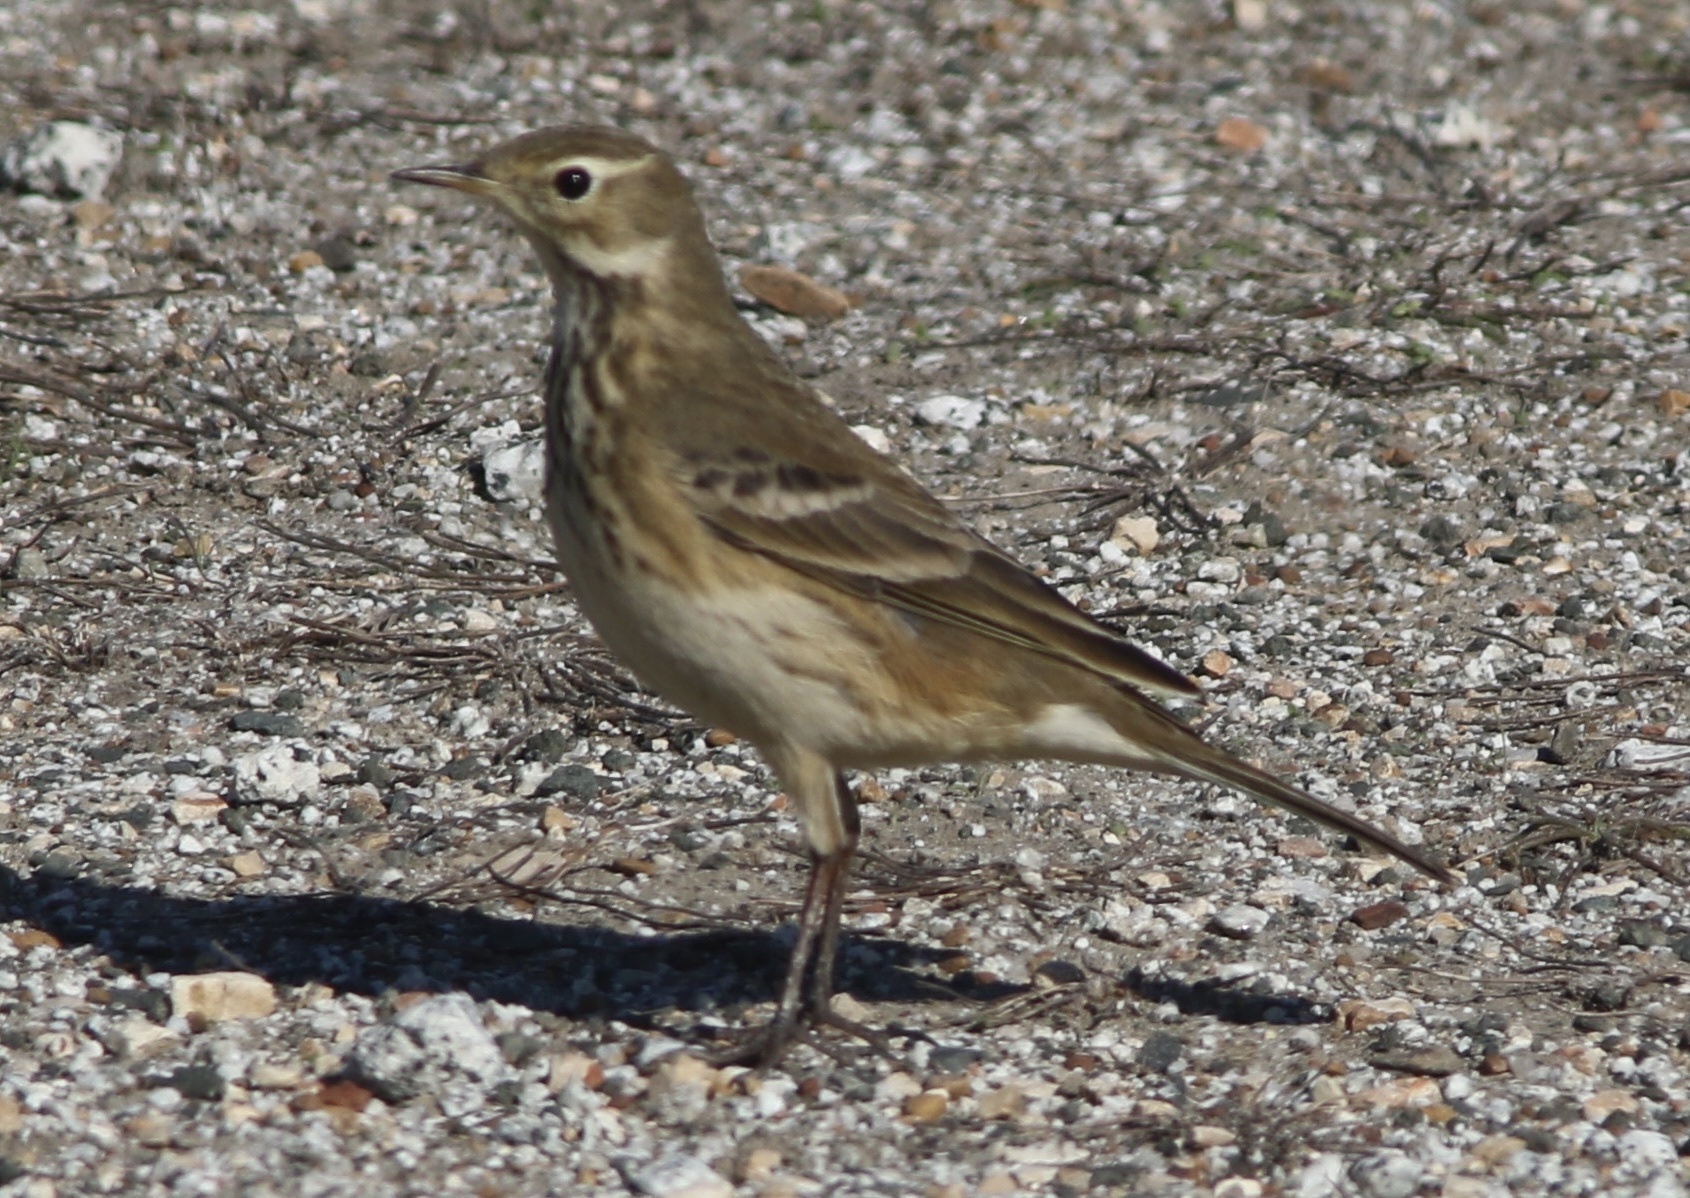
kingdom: Animalia
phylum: Chordata
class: Aves
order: Passeriformes
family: Motacillidae
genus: Anthus
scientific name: Anthus rubescens
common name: Buff-bellied pipit
